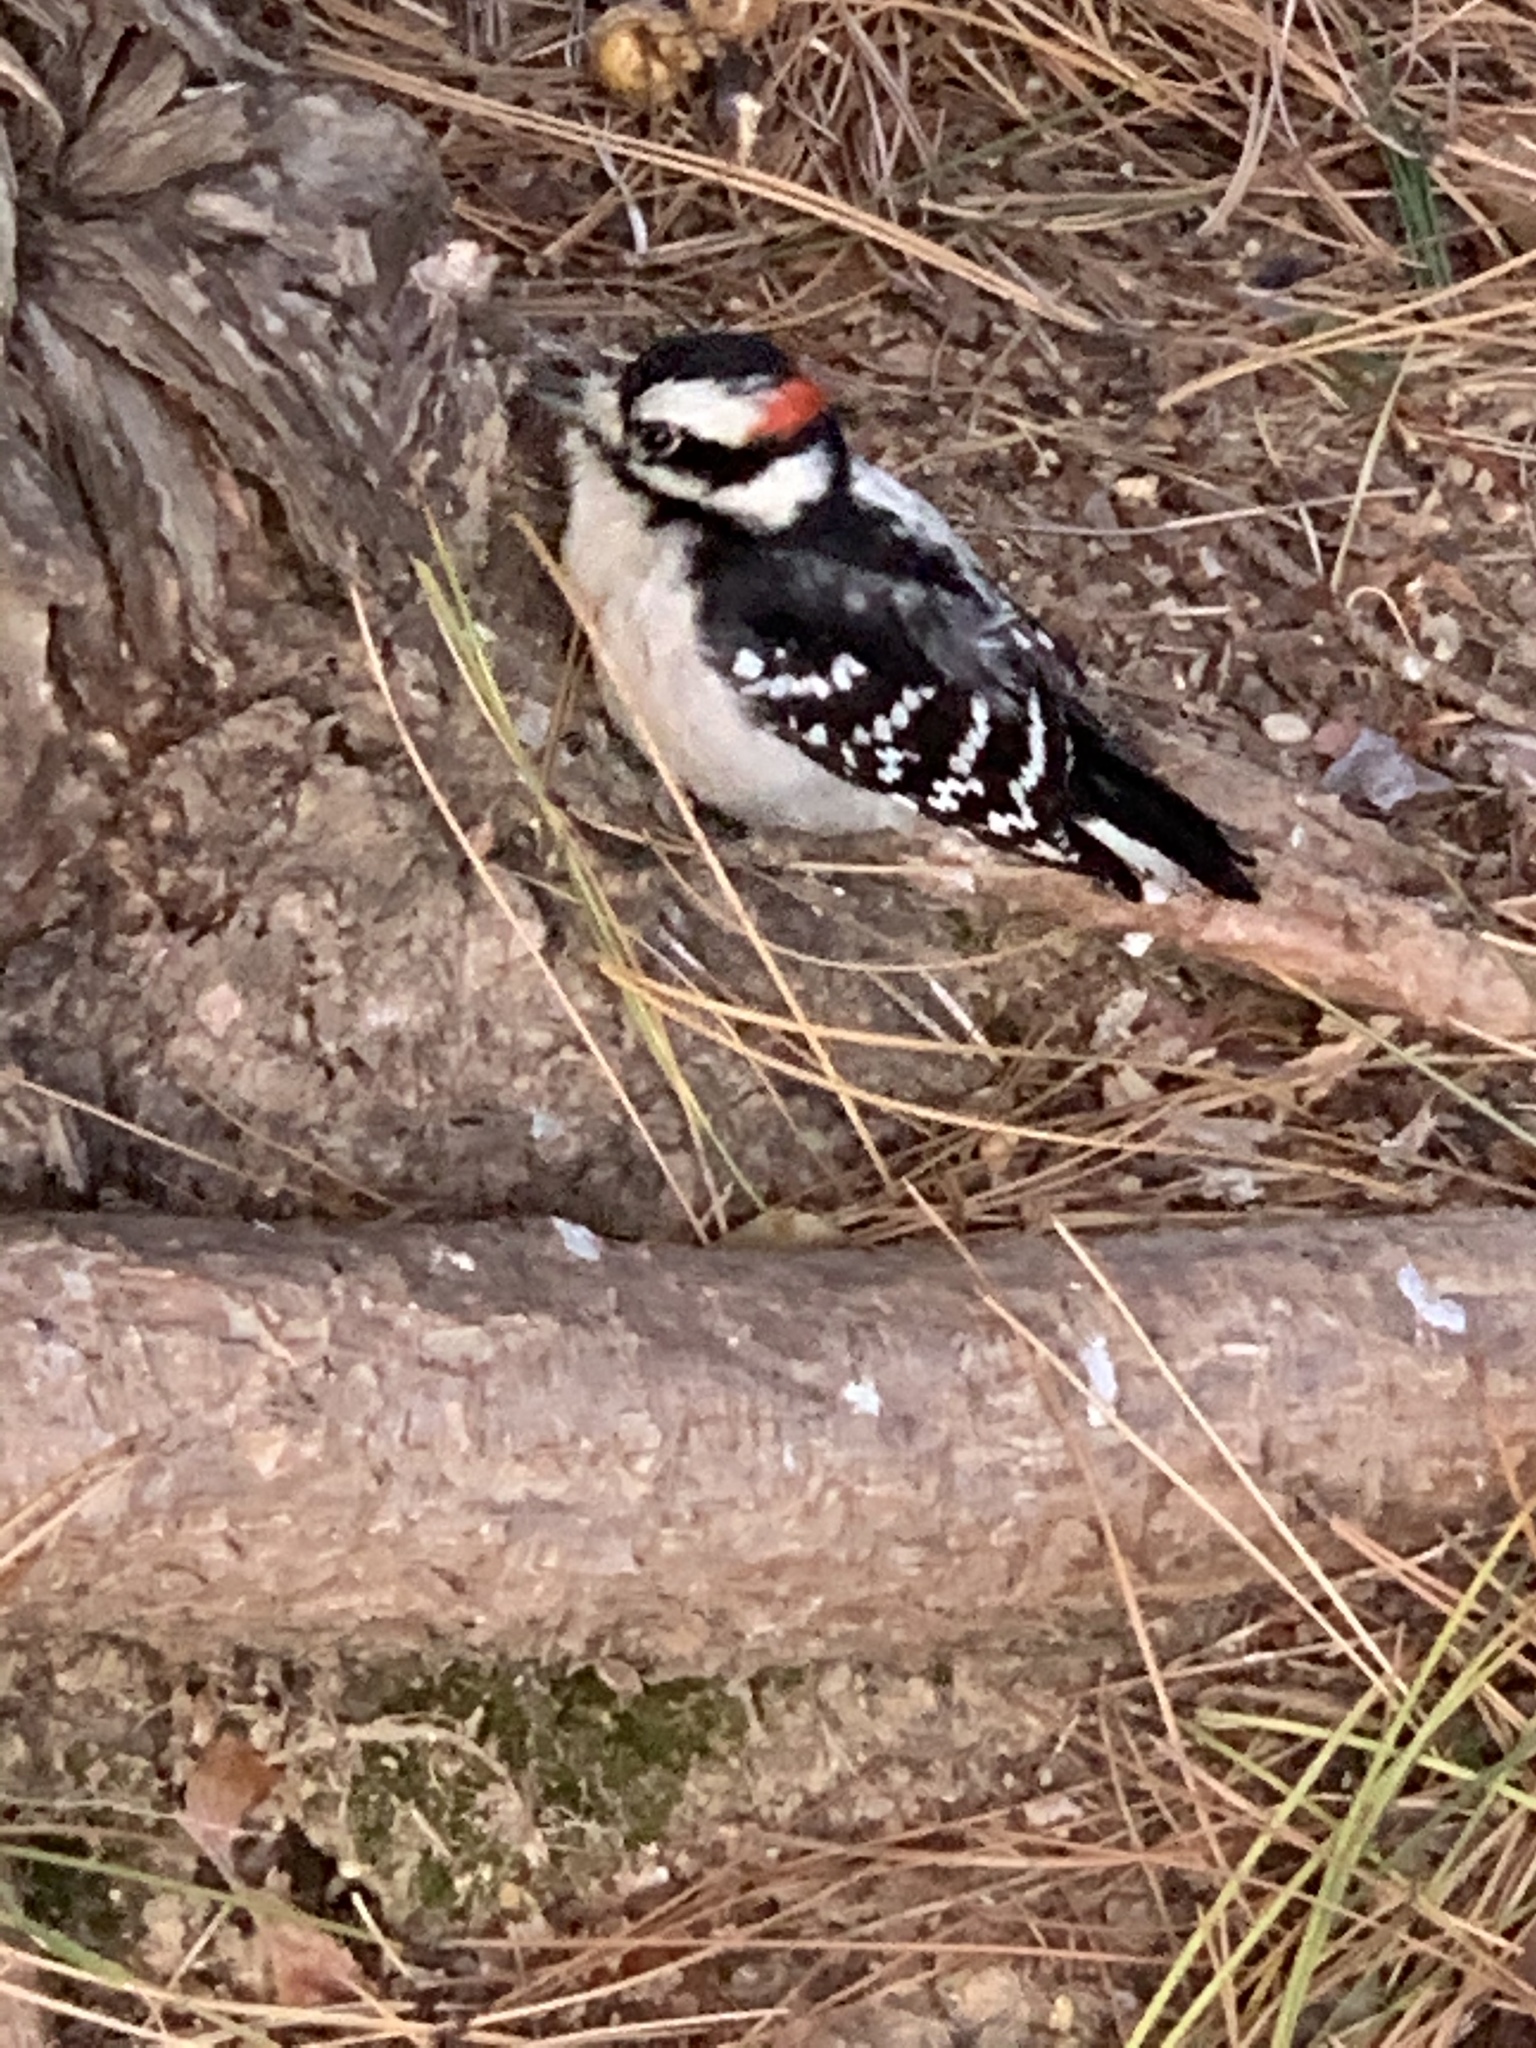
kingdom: Animalia
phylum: Chordata
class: Aves
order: Piciformes
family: Picidae
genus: Dryobates
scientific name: Dryobates pubescens
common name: Downy woodpecker
